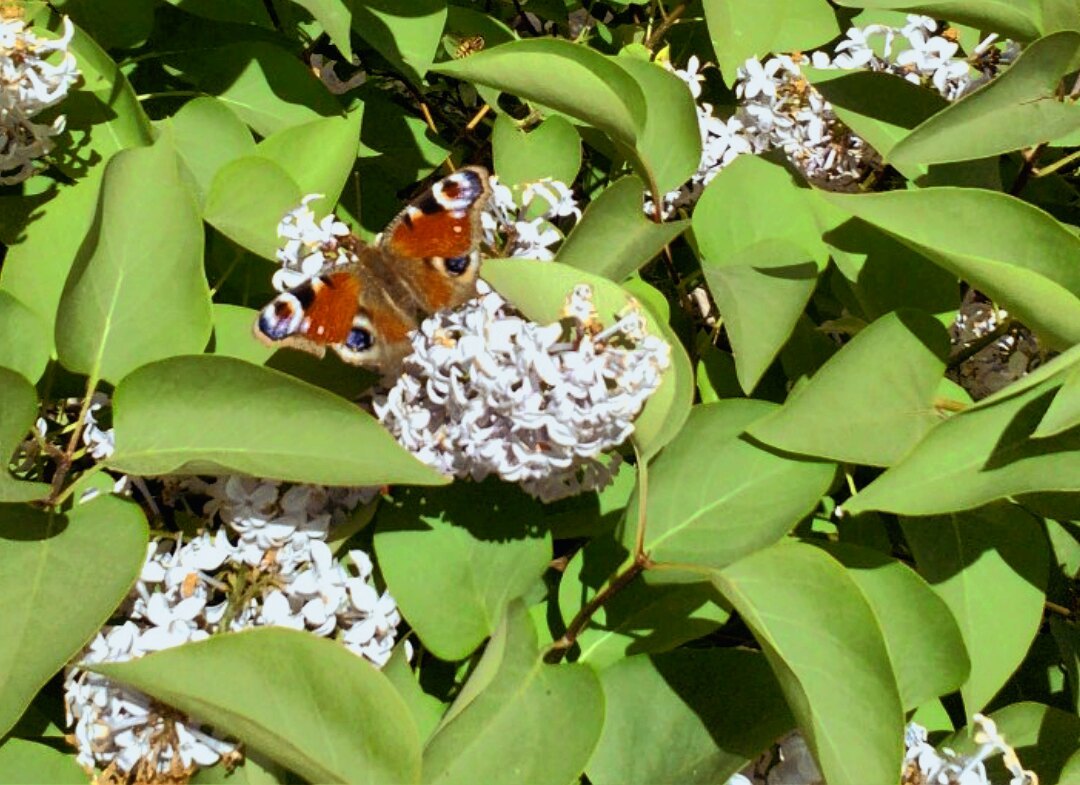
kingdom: Animalia
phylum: Arthropoda
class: Insecta
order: Lepidoptera
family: Nymphalidae
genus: Aglais
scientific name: Aglais io
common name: Peacock
